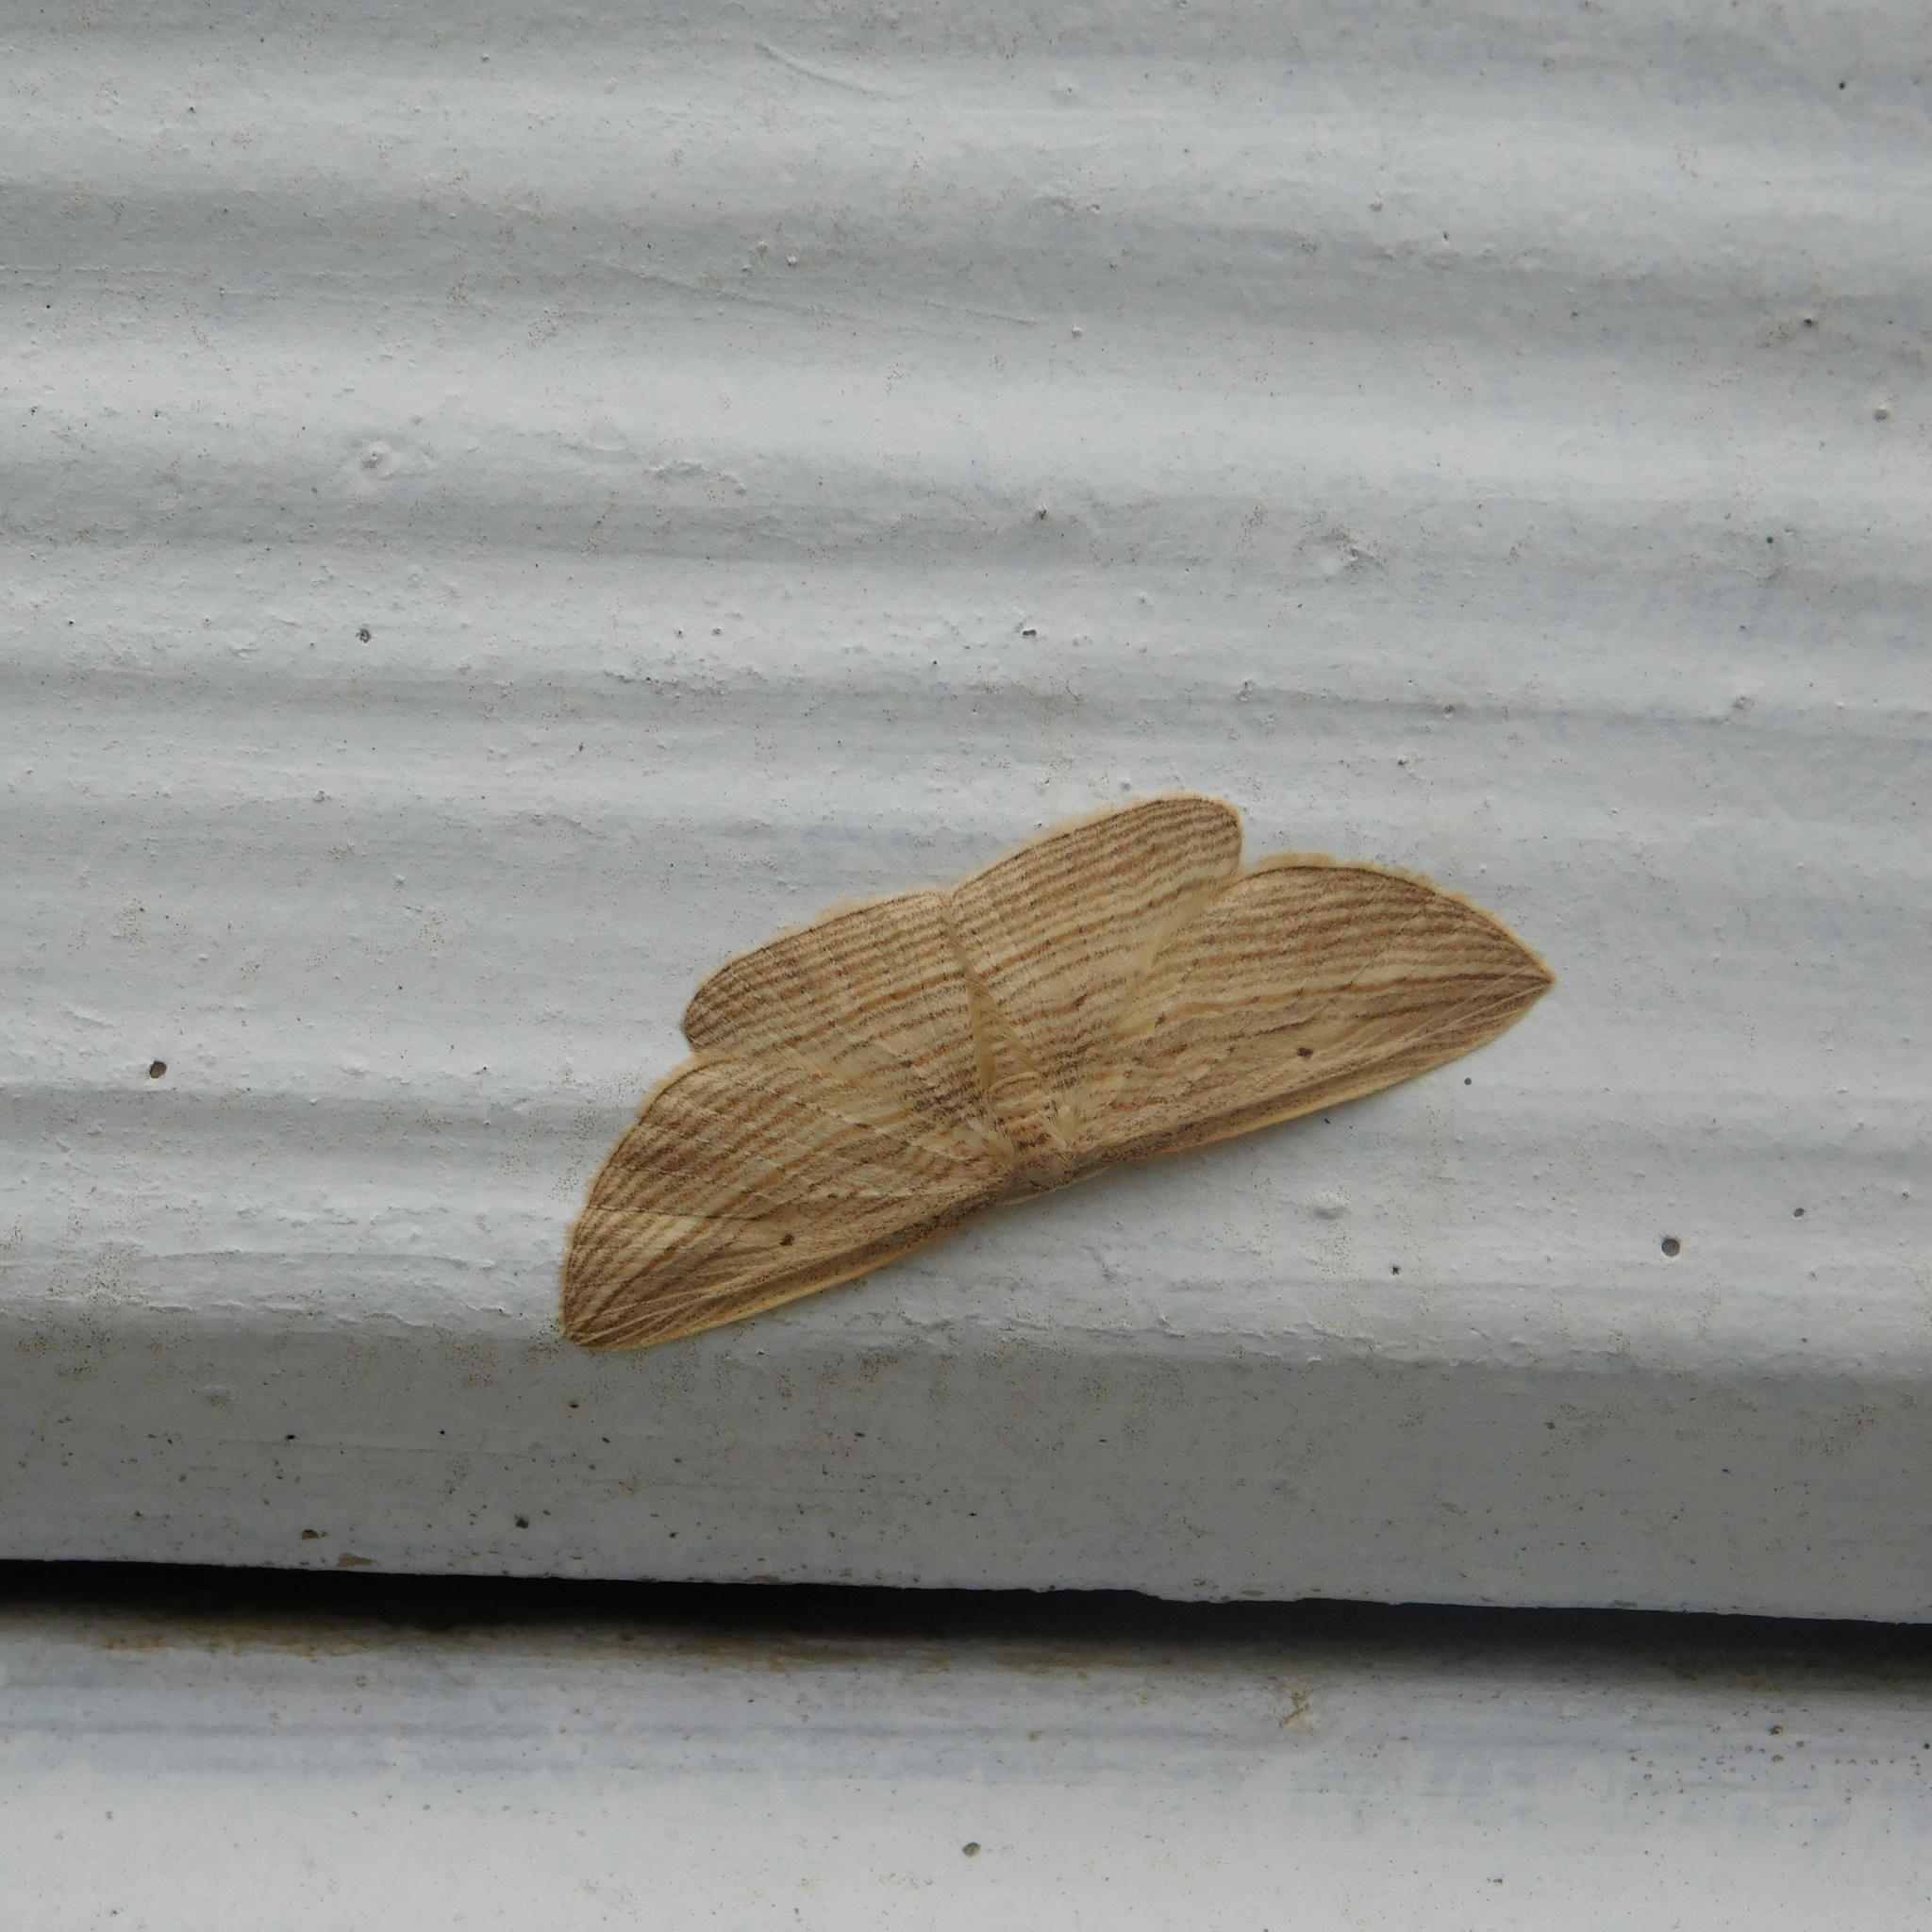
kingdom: Animalia
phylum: Arthropoda
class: Insecta
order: Lepidoptera
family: Geometridae
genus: Epiphryne
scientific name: Epiphryne verriculata
